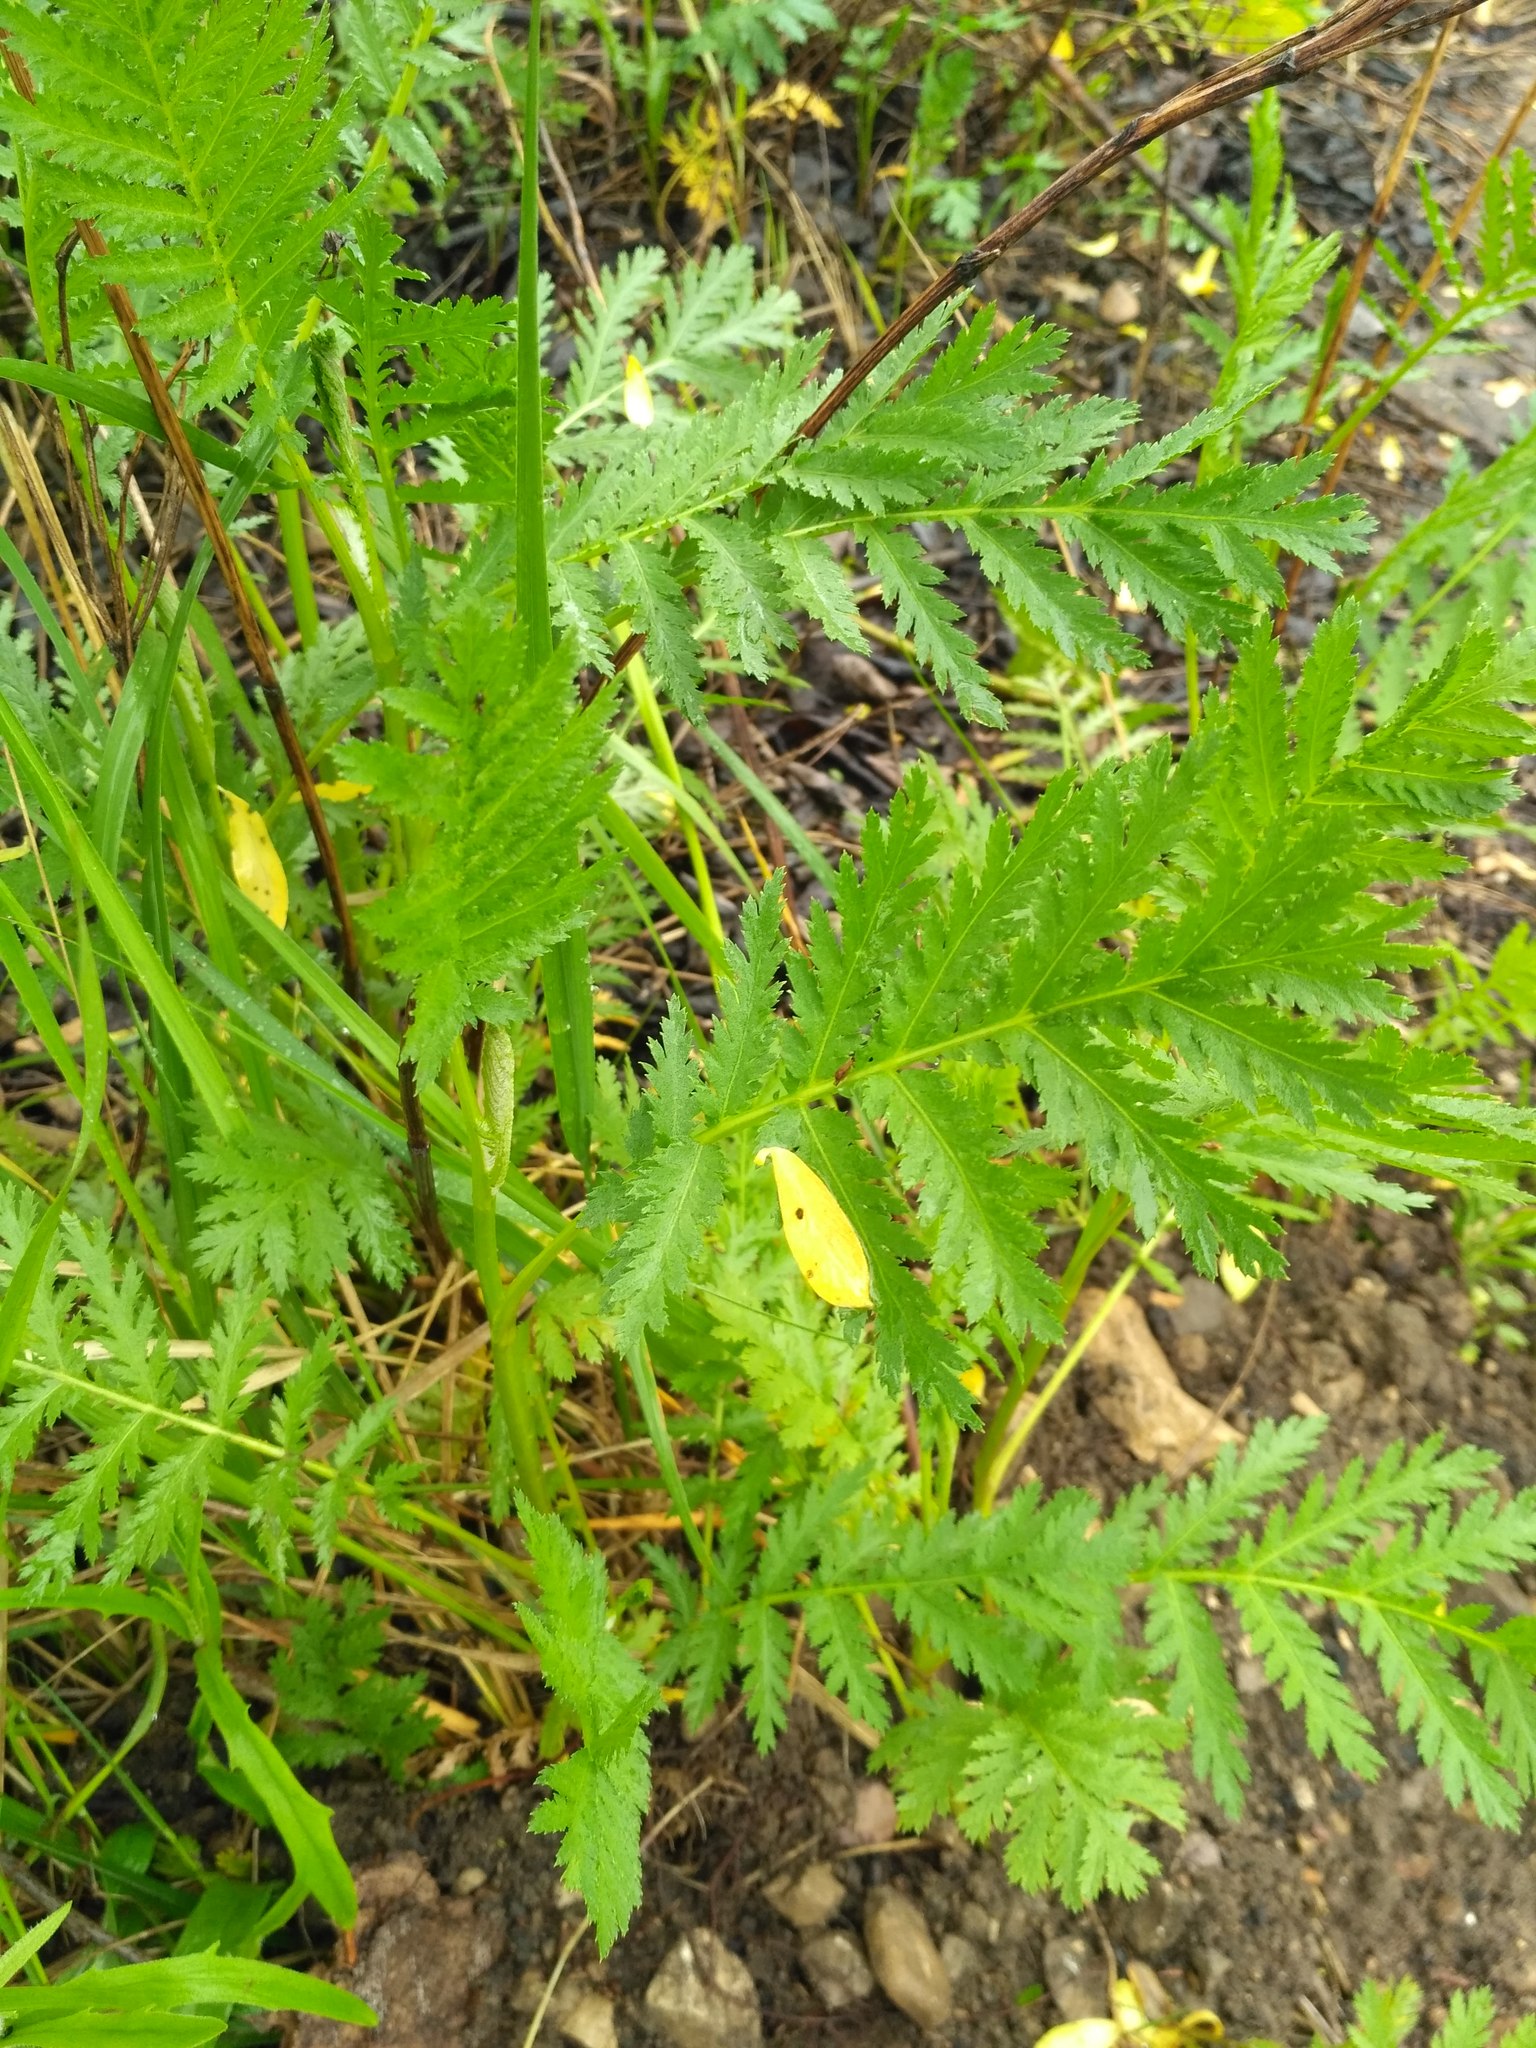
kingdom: Plantae
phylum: Tracheophyta
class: Magnoliopsida
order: Asterales
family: Asteraceae
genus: Tanacetum
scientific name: Tanacetum vulgare
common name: Common tansy
